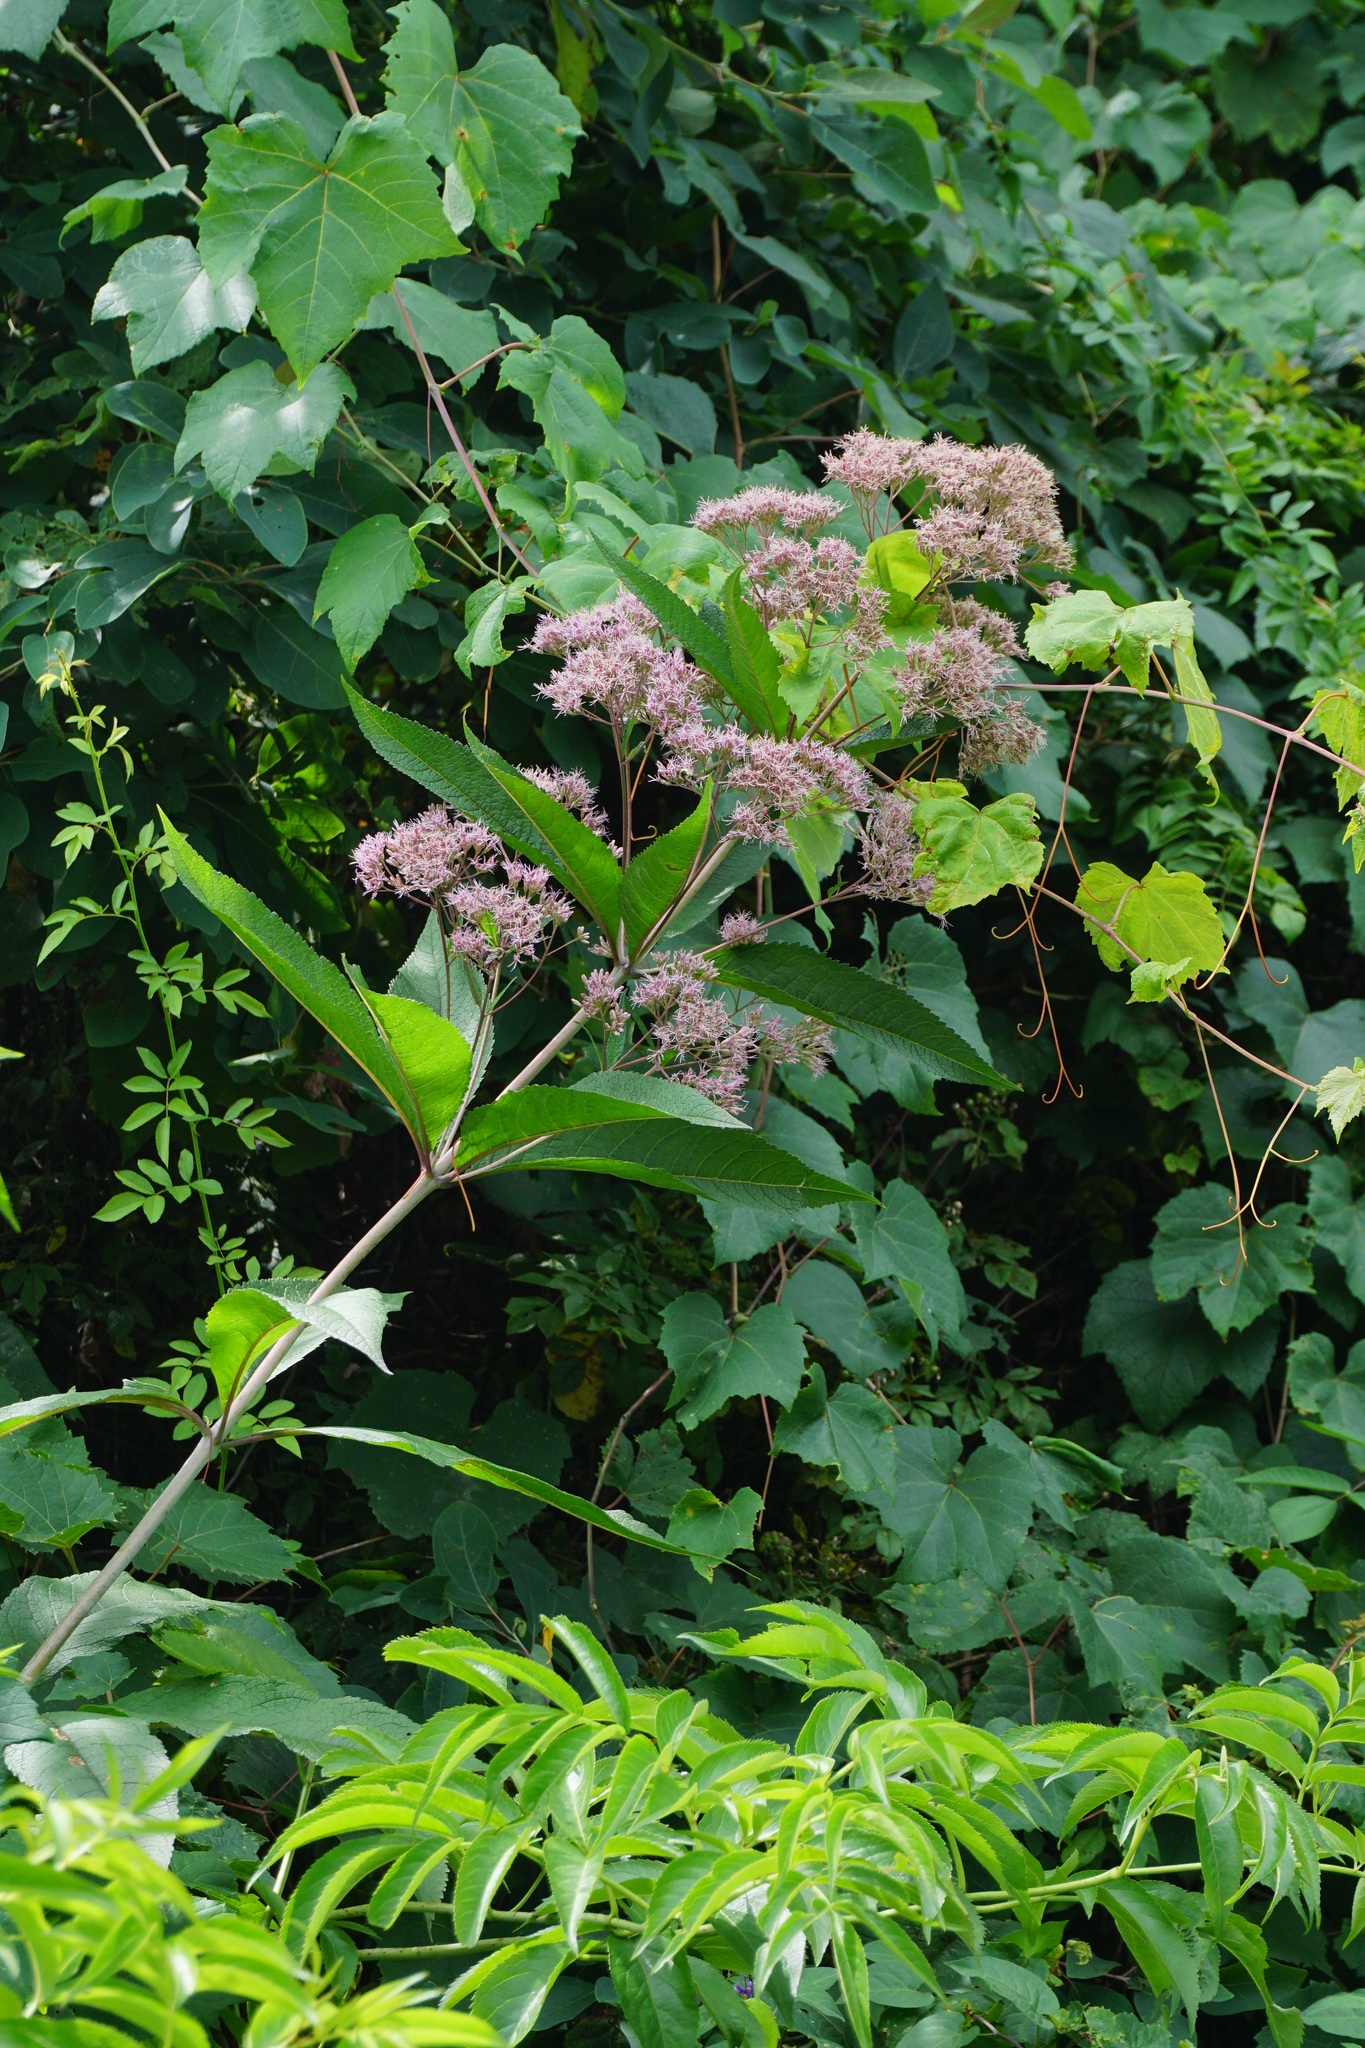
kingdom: Plantae
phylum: Tracheophyta
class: Magnoliopsida
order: Asterales
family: Asteraceae
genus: Eutrochium
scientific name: Eutrochium fistulosum
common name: Trumpetweed
